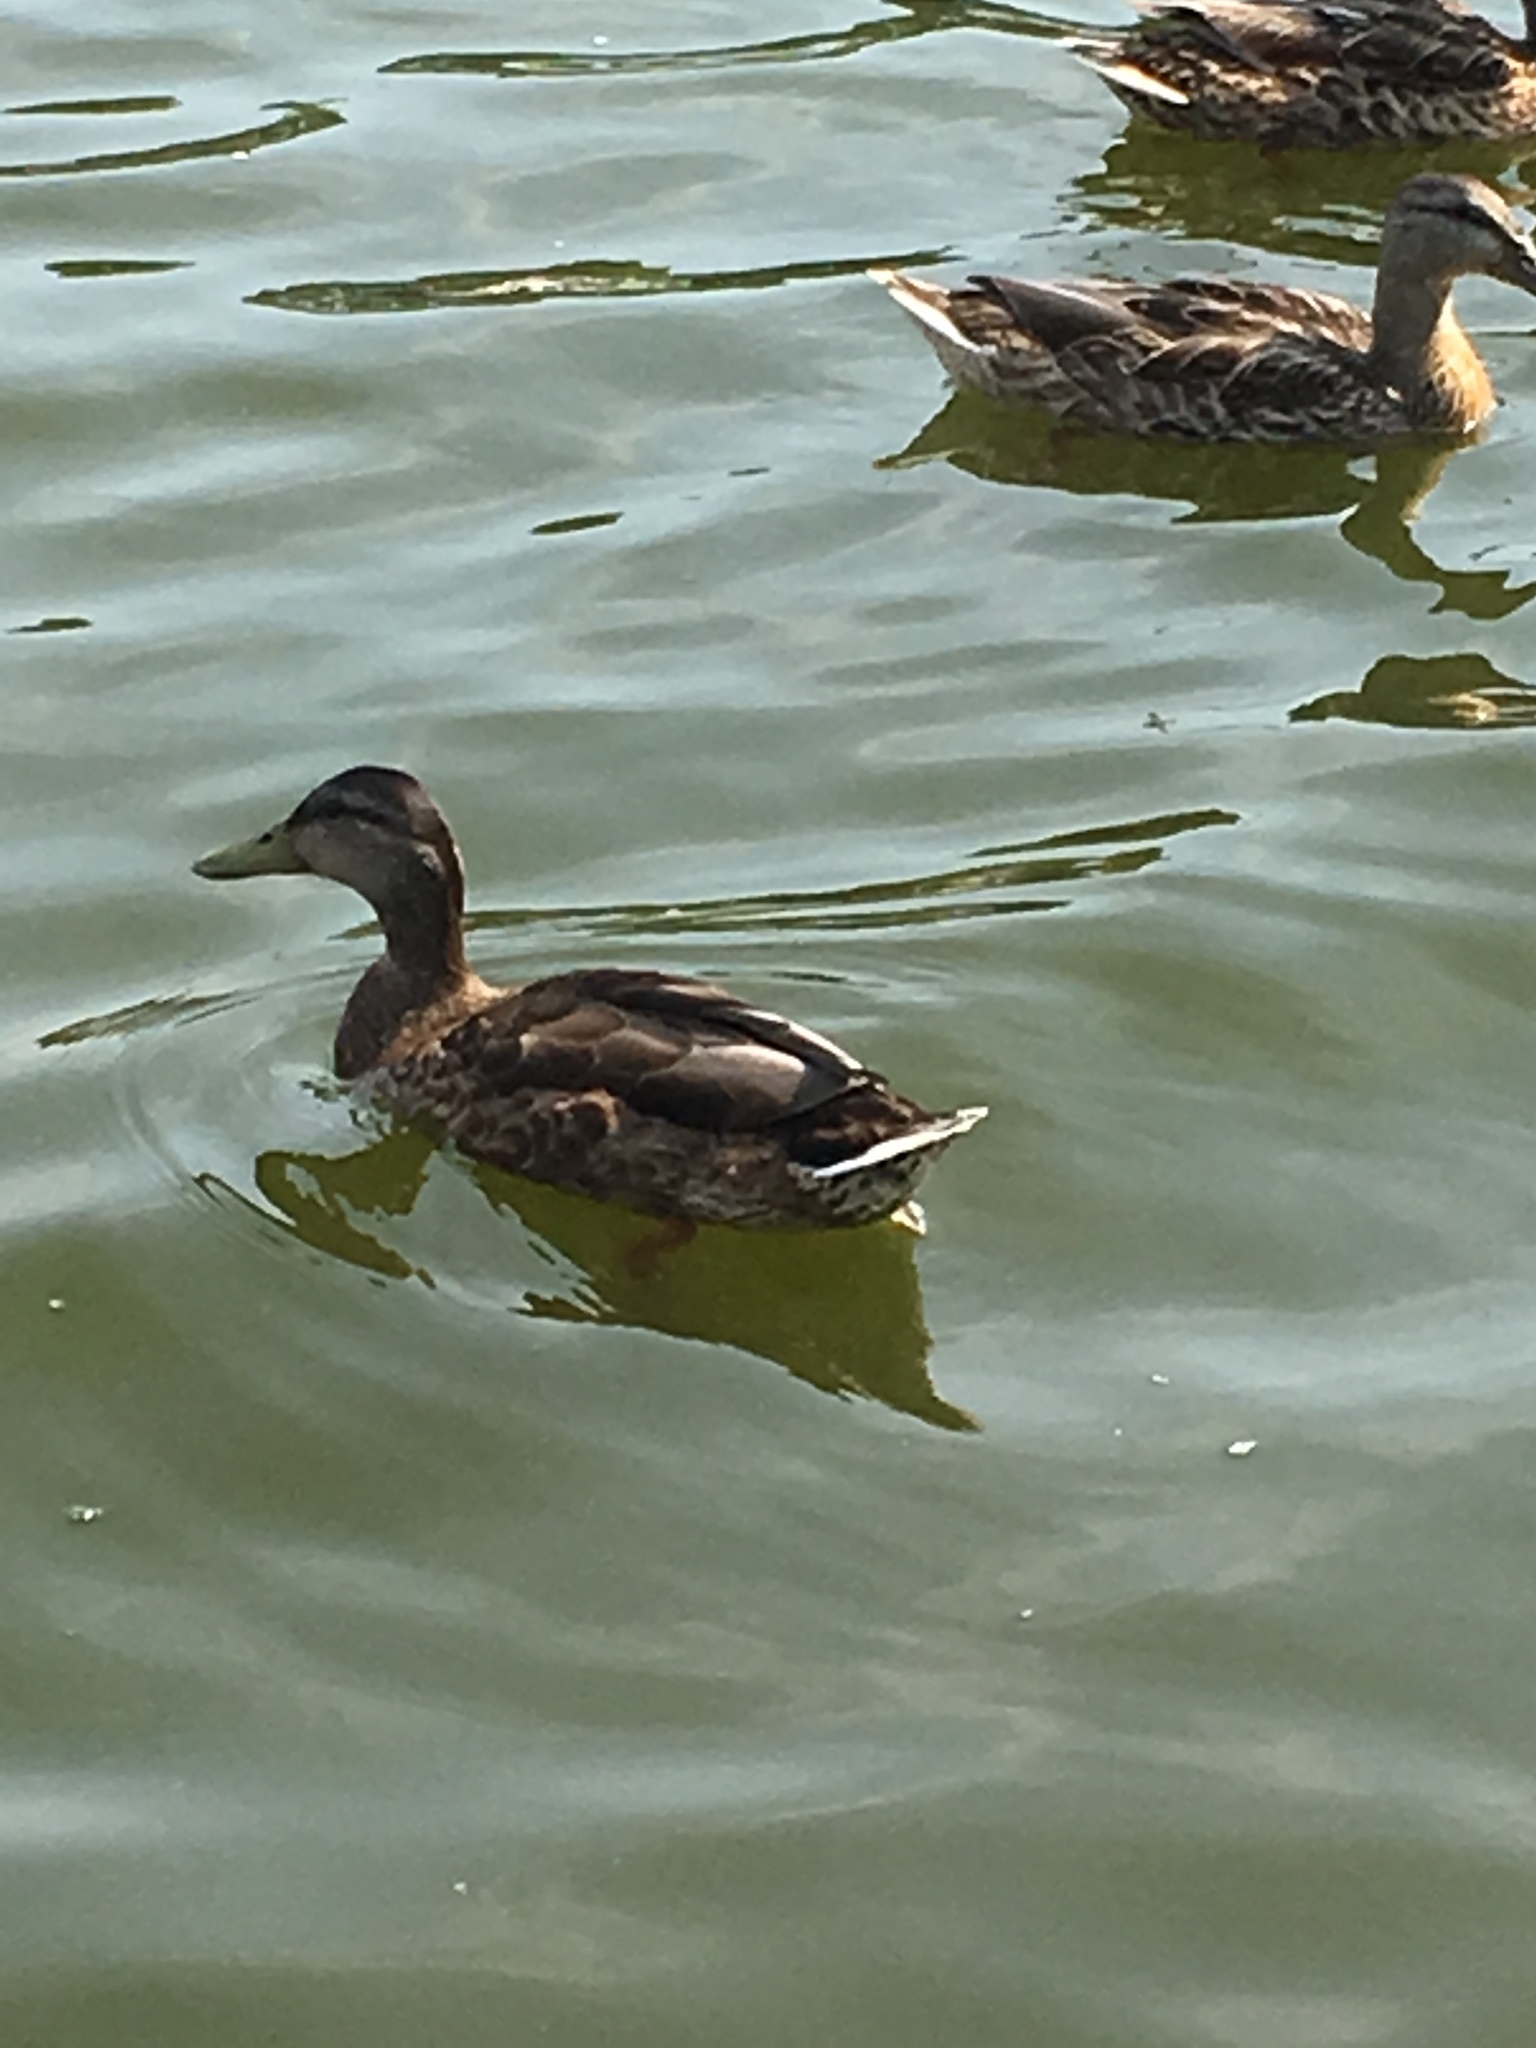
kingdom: Animalia
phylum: Chordata
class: Aves
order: Anseriformes
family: Anatidae
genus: Anas
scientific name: Anas platyrhynchos
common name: Mallard
